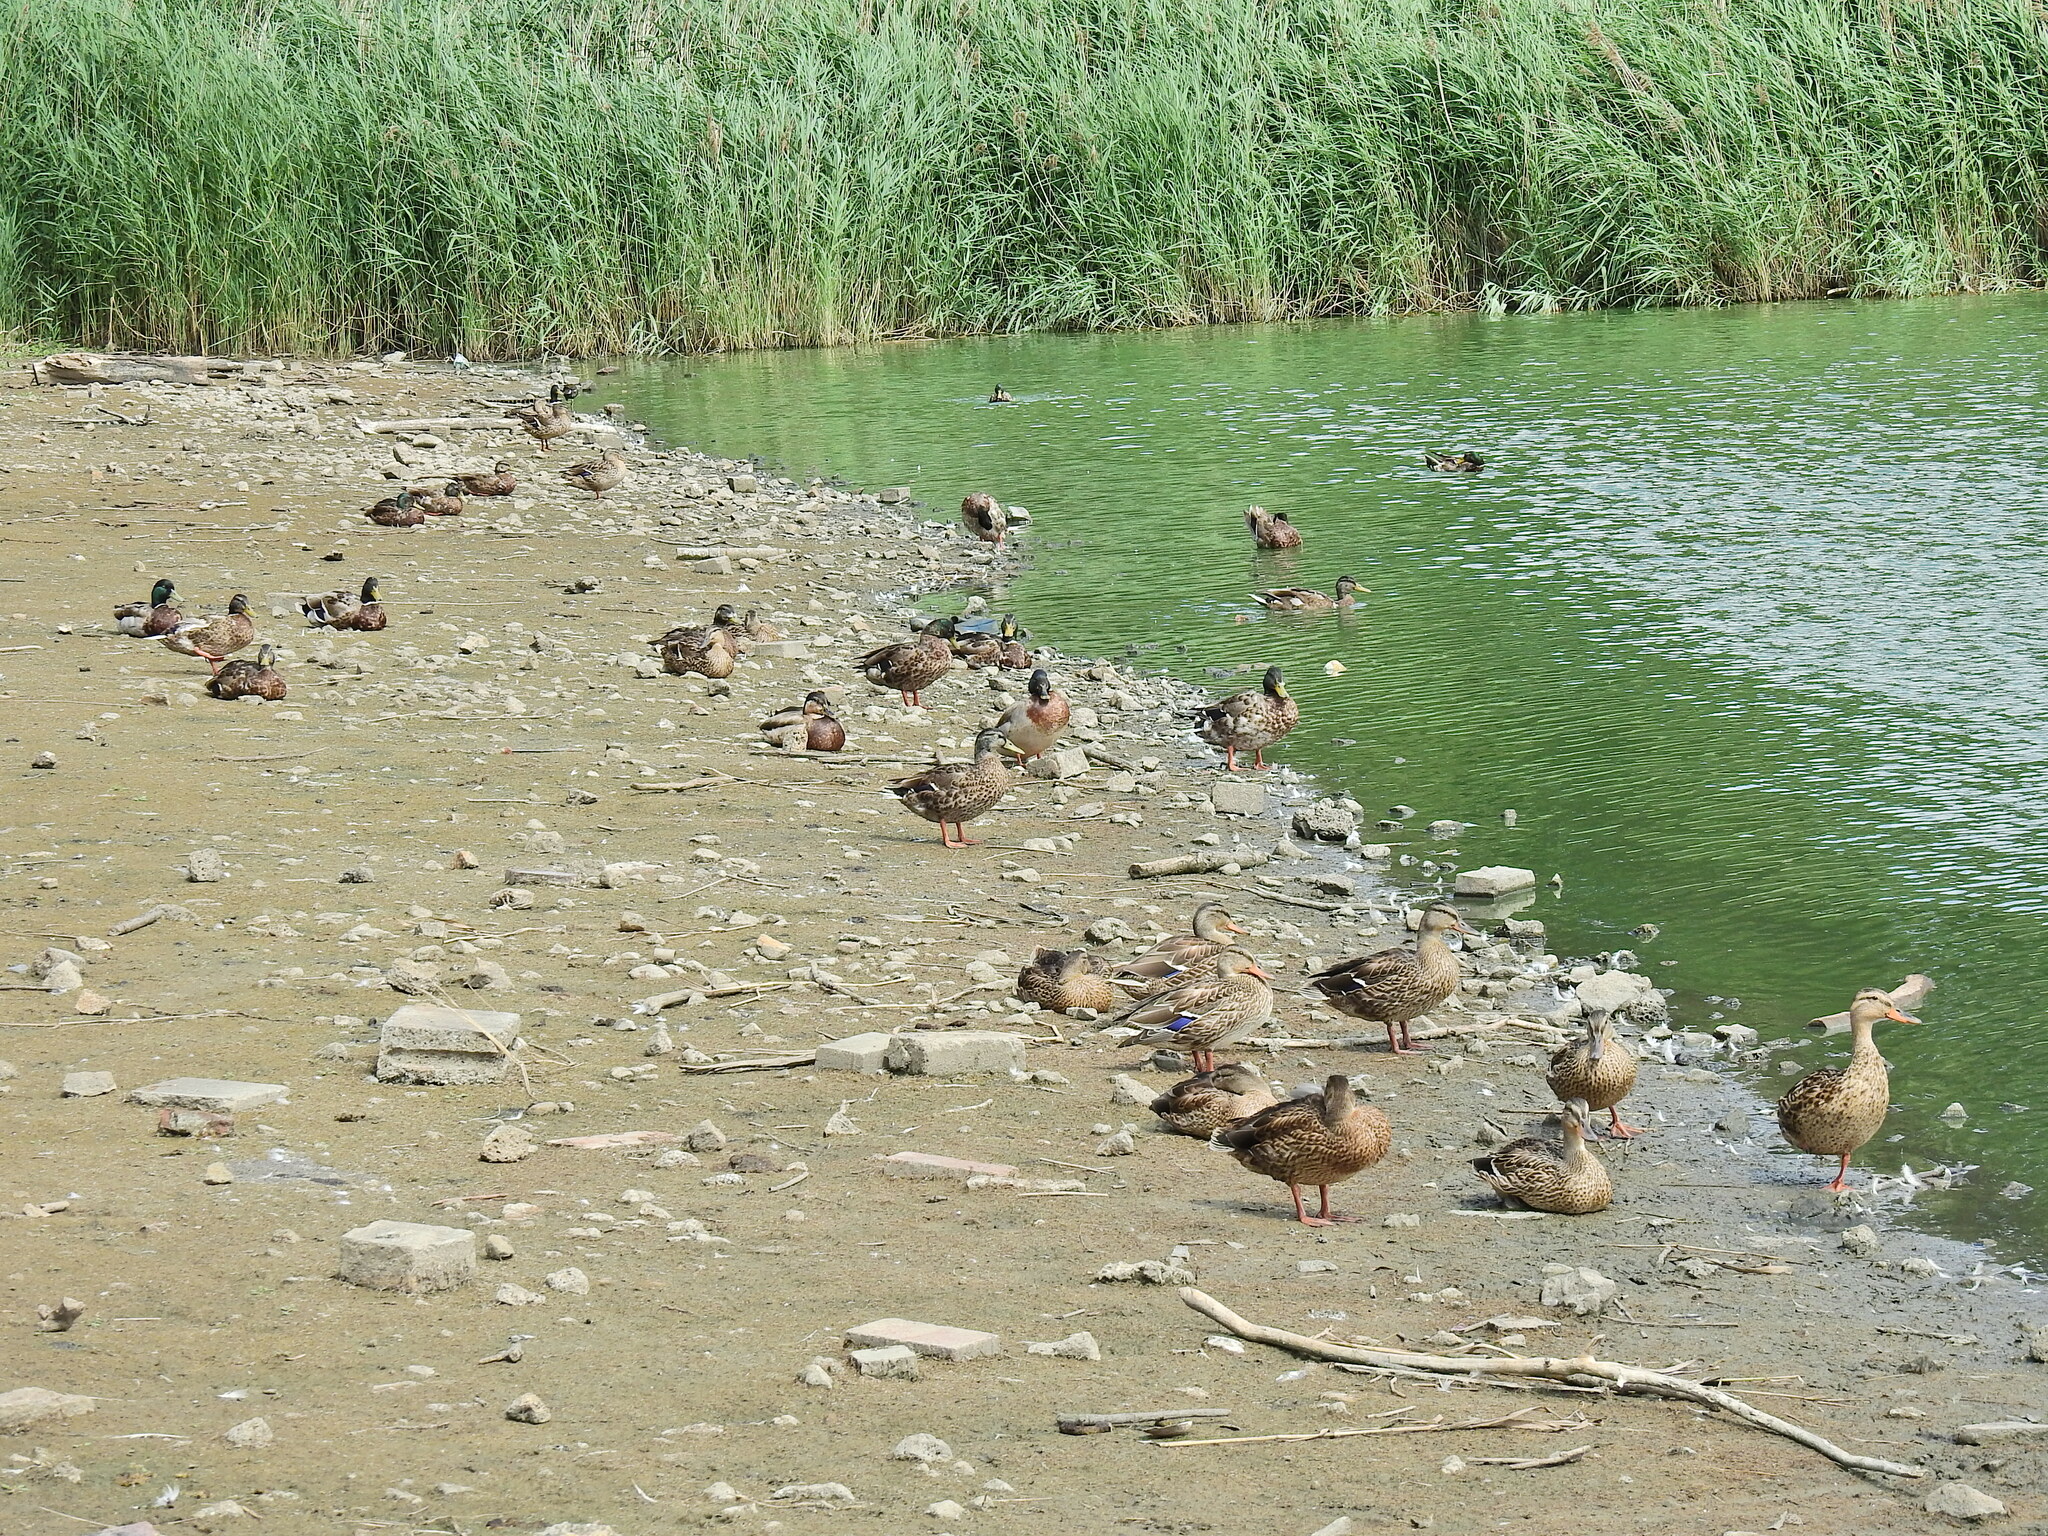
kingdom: Animalia
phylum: Chordata
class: Aves
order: Anseriformes
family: Anatidae
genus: Anas
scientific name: Anas platyrhynchos
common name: Mallard
